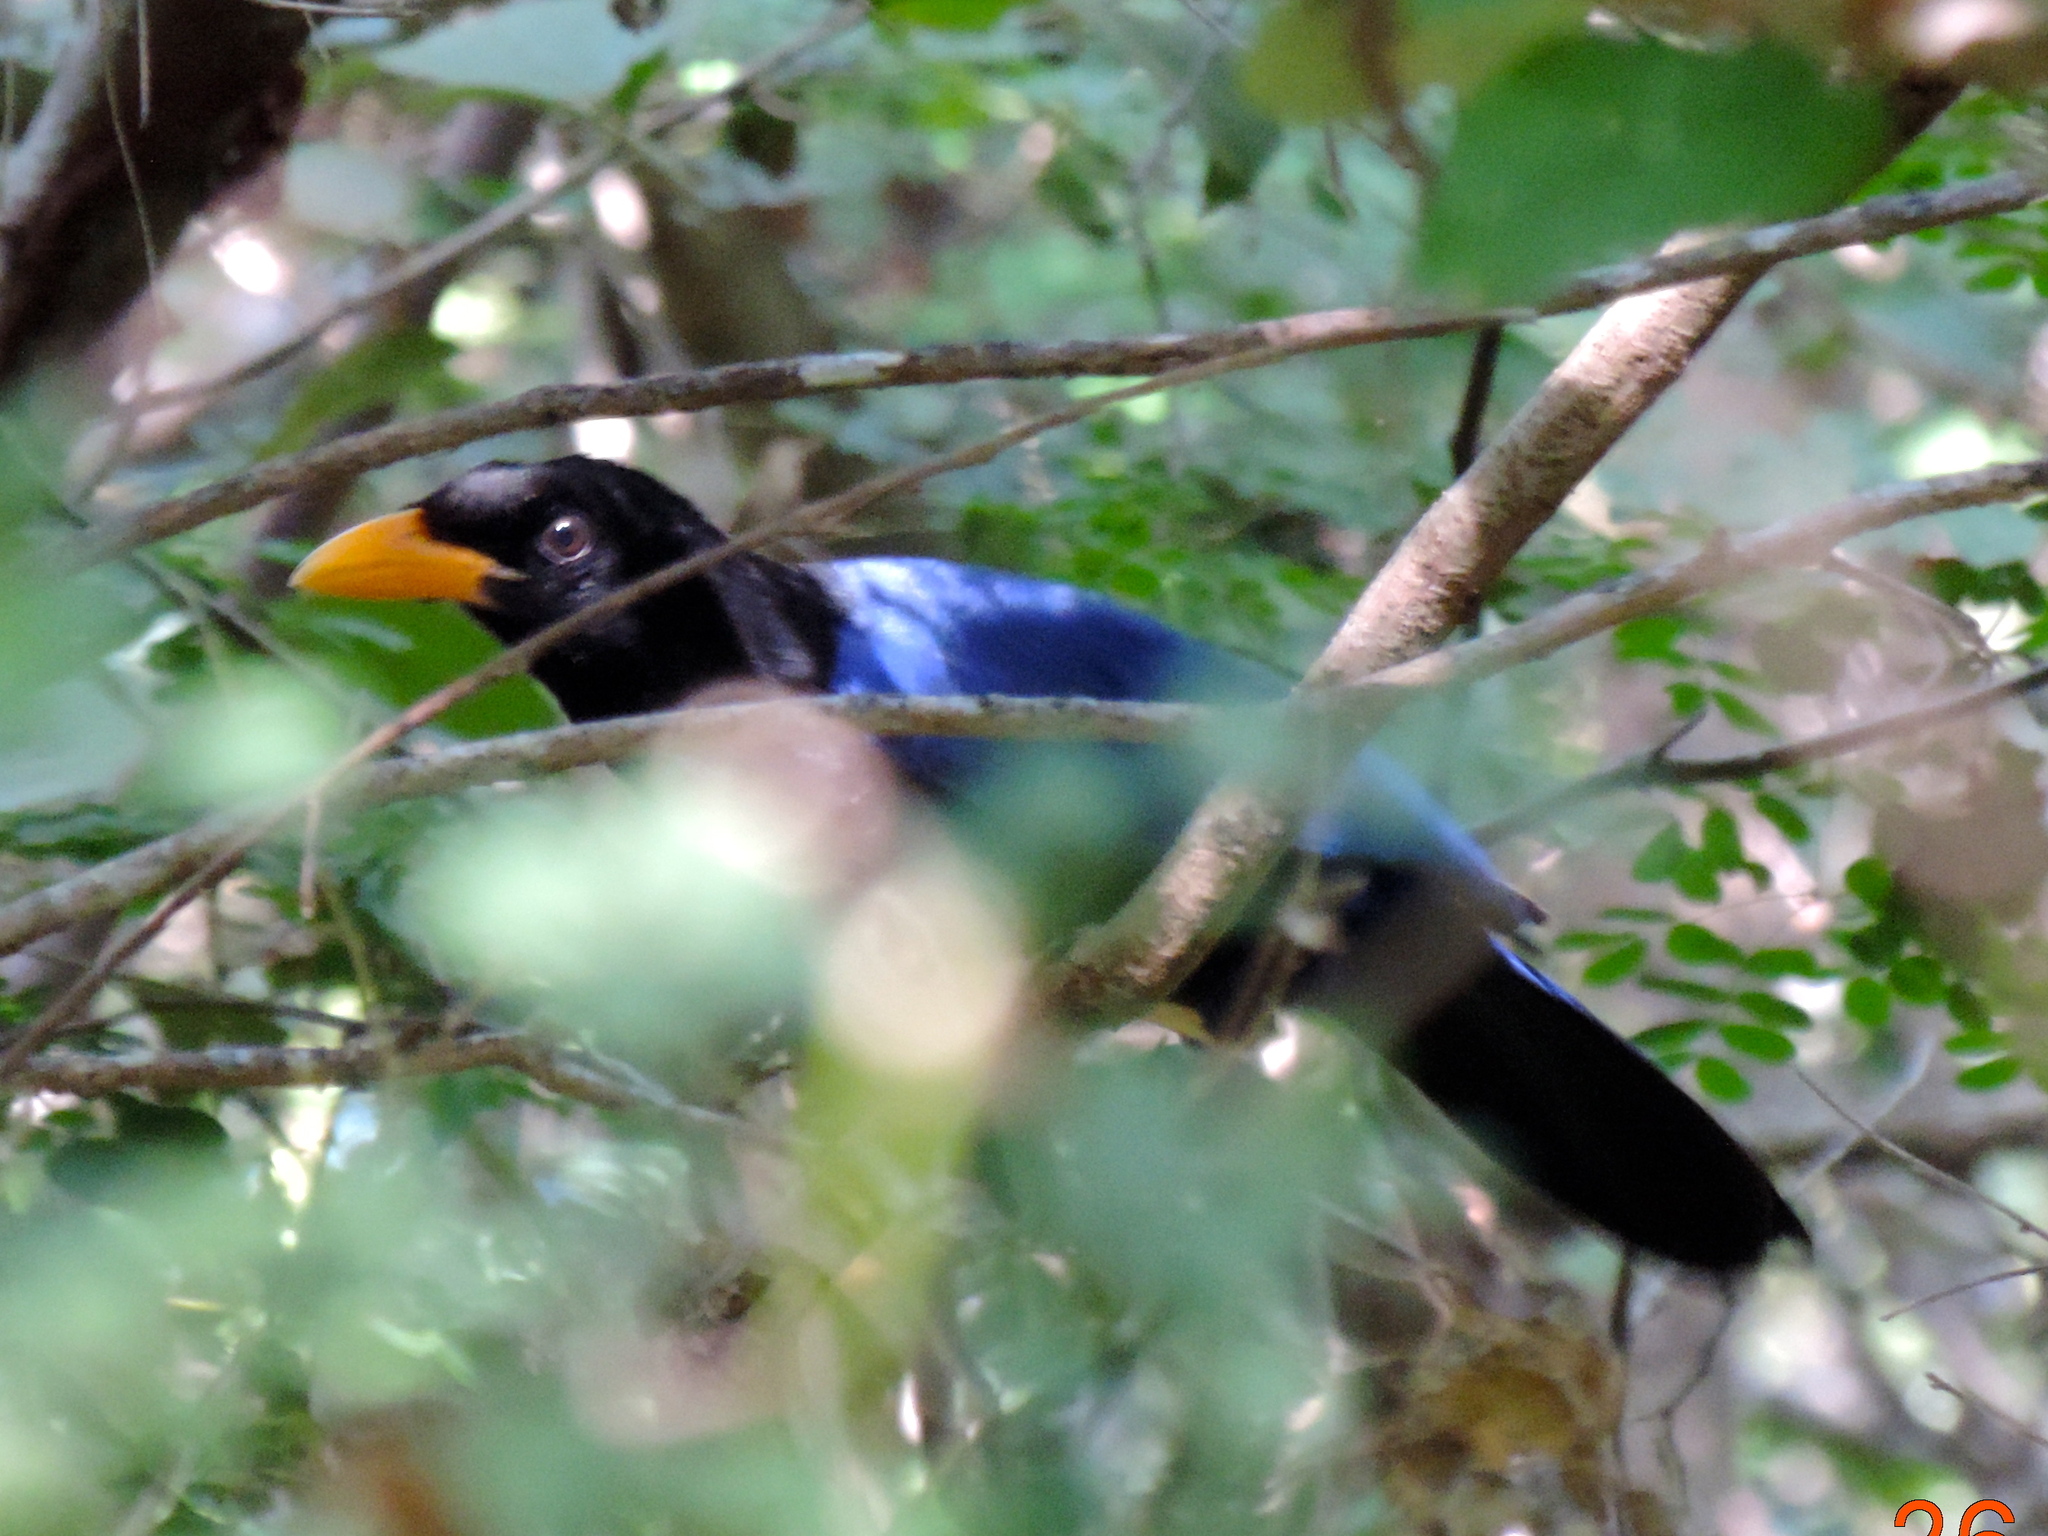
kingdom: Animalia
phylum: Chordata
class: Aves
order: Passeriformes
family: Corvidae
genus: Cyanocorax
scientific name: Cyanocorax beecheii
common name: Purplish-backed jay
